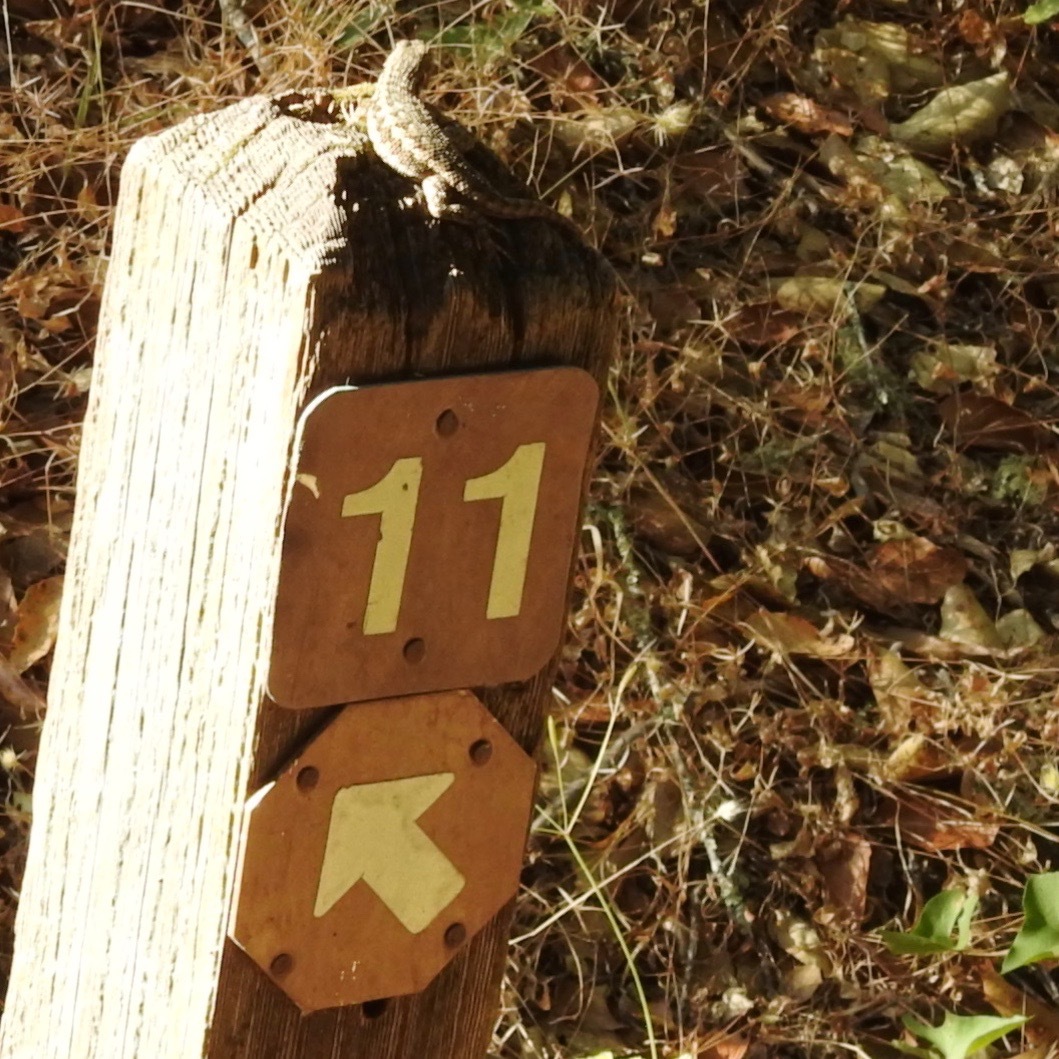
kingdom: Animalia
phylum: Chordata
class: Squamata
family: Phrynosomatidae
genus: Sceloporus
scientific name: Sceloporus occidentalis
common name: Western fence lizard
